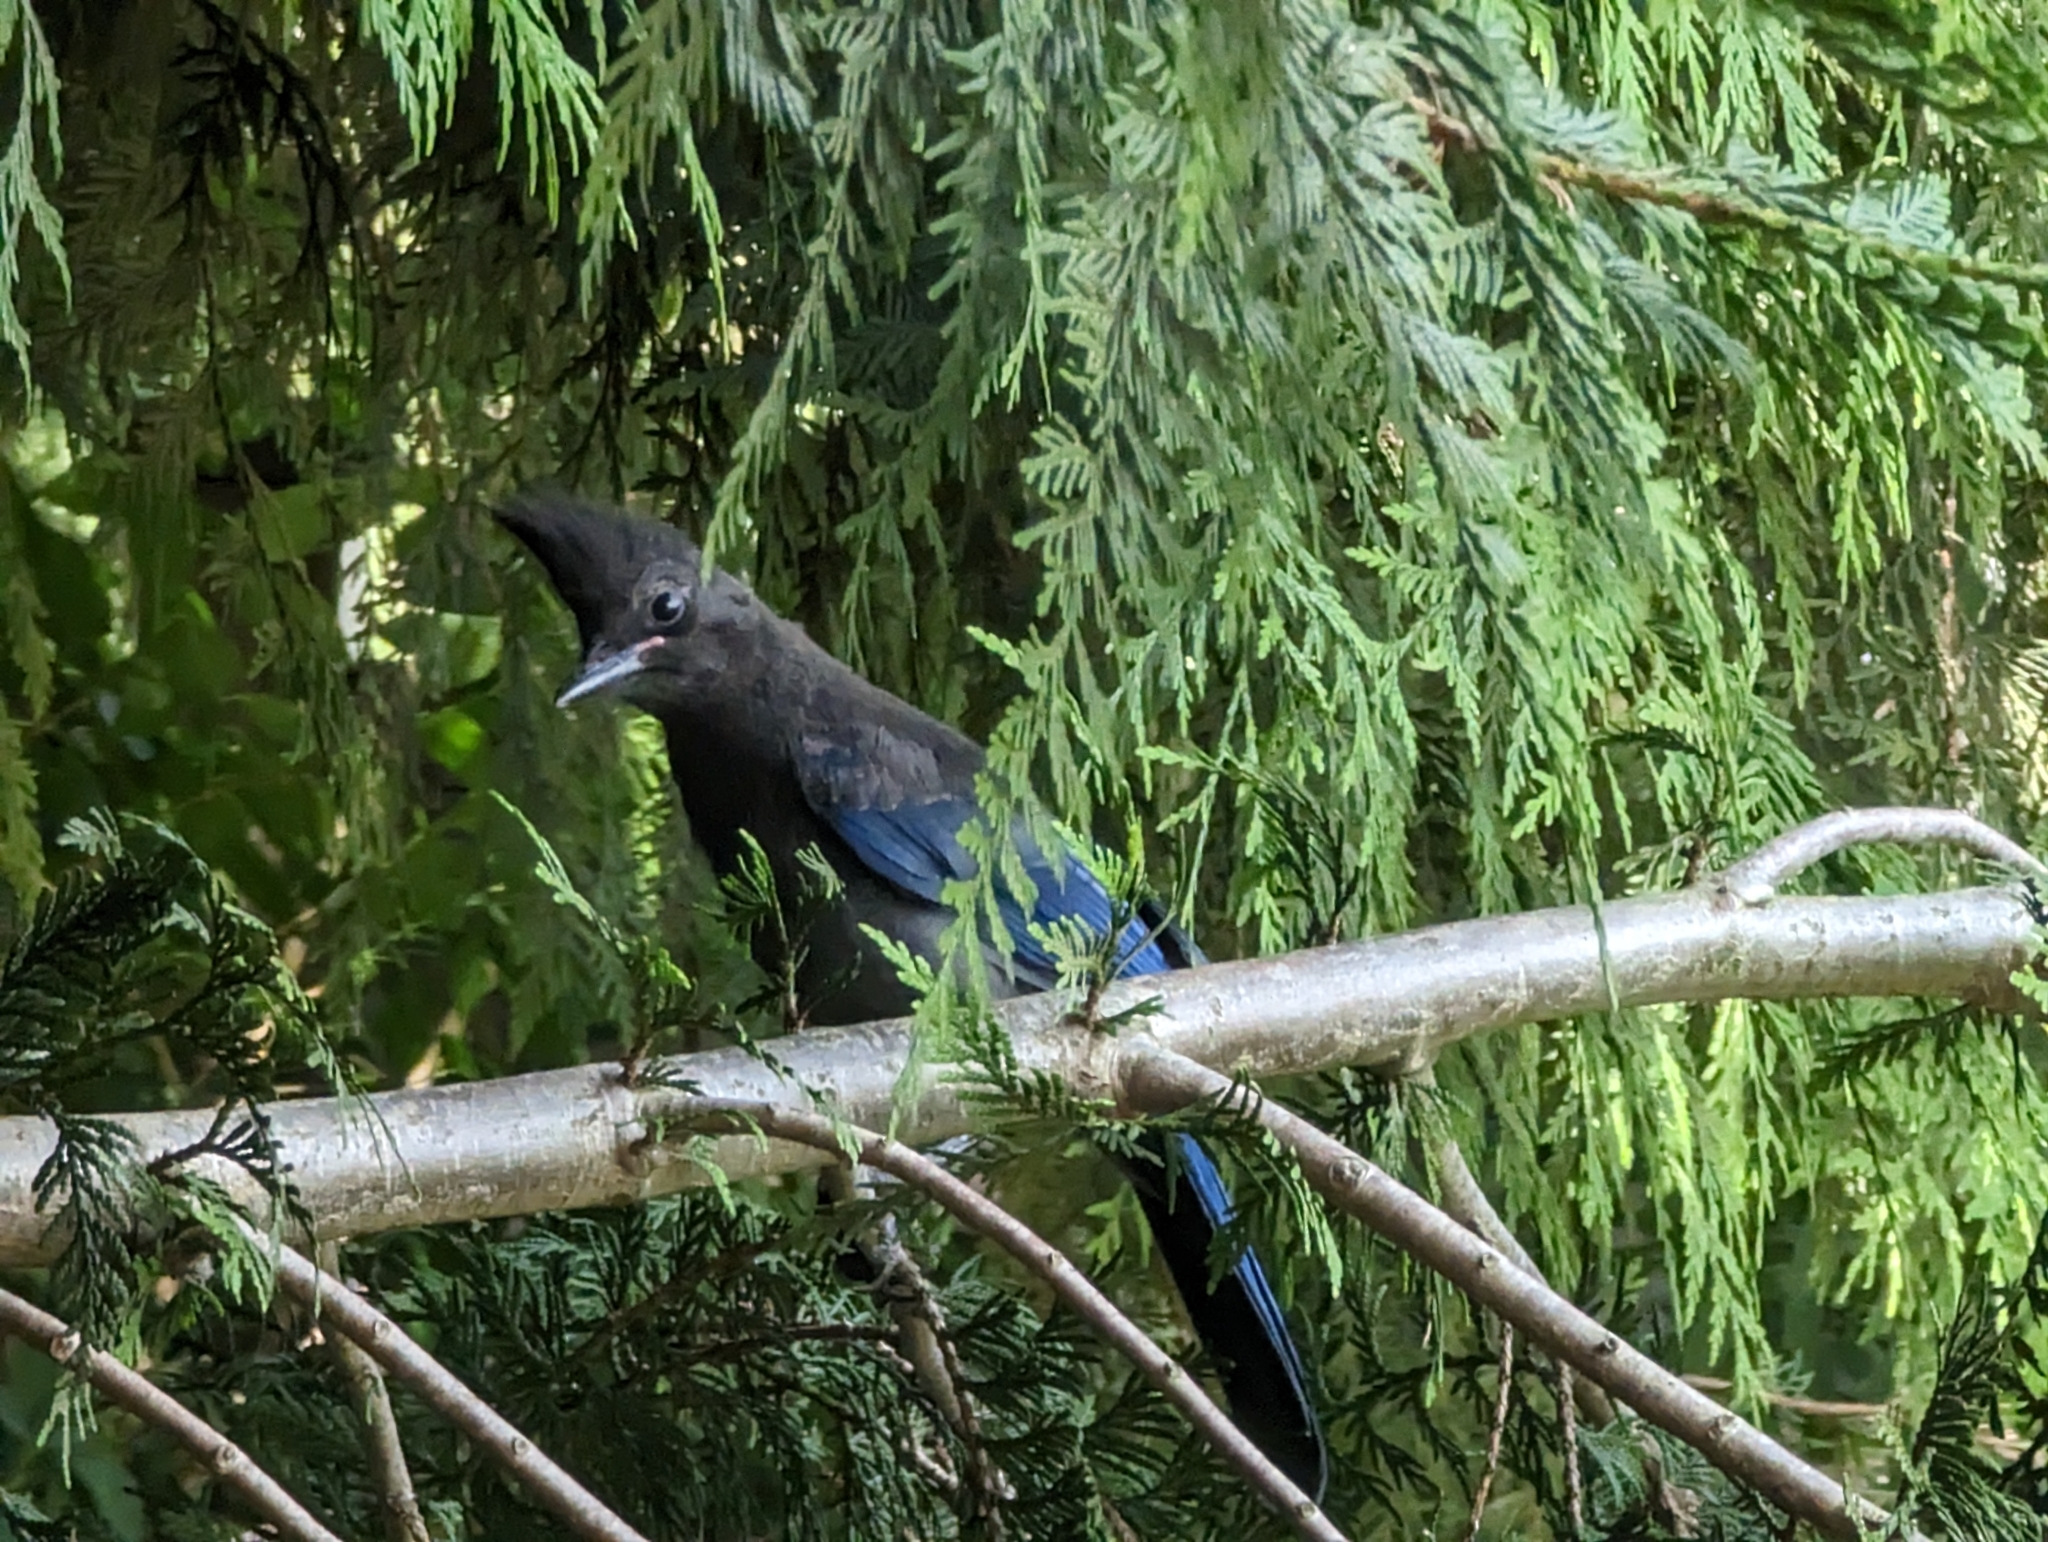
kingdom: Animalia
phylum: Chordata
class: Aves
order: Passeriformes
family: Corvidae
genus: Cyanocitta
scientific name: Cyanocitta stelleri
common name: Steller's jay
